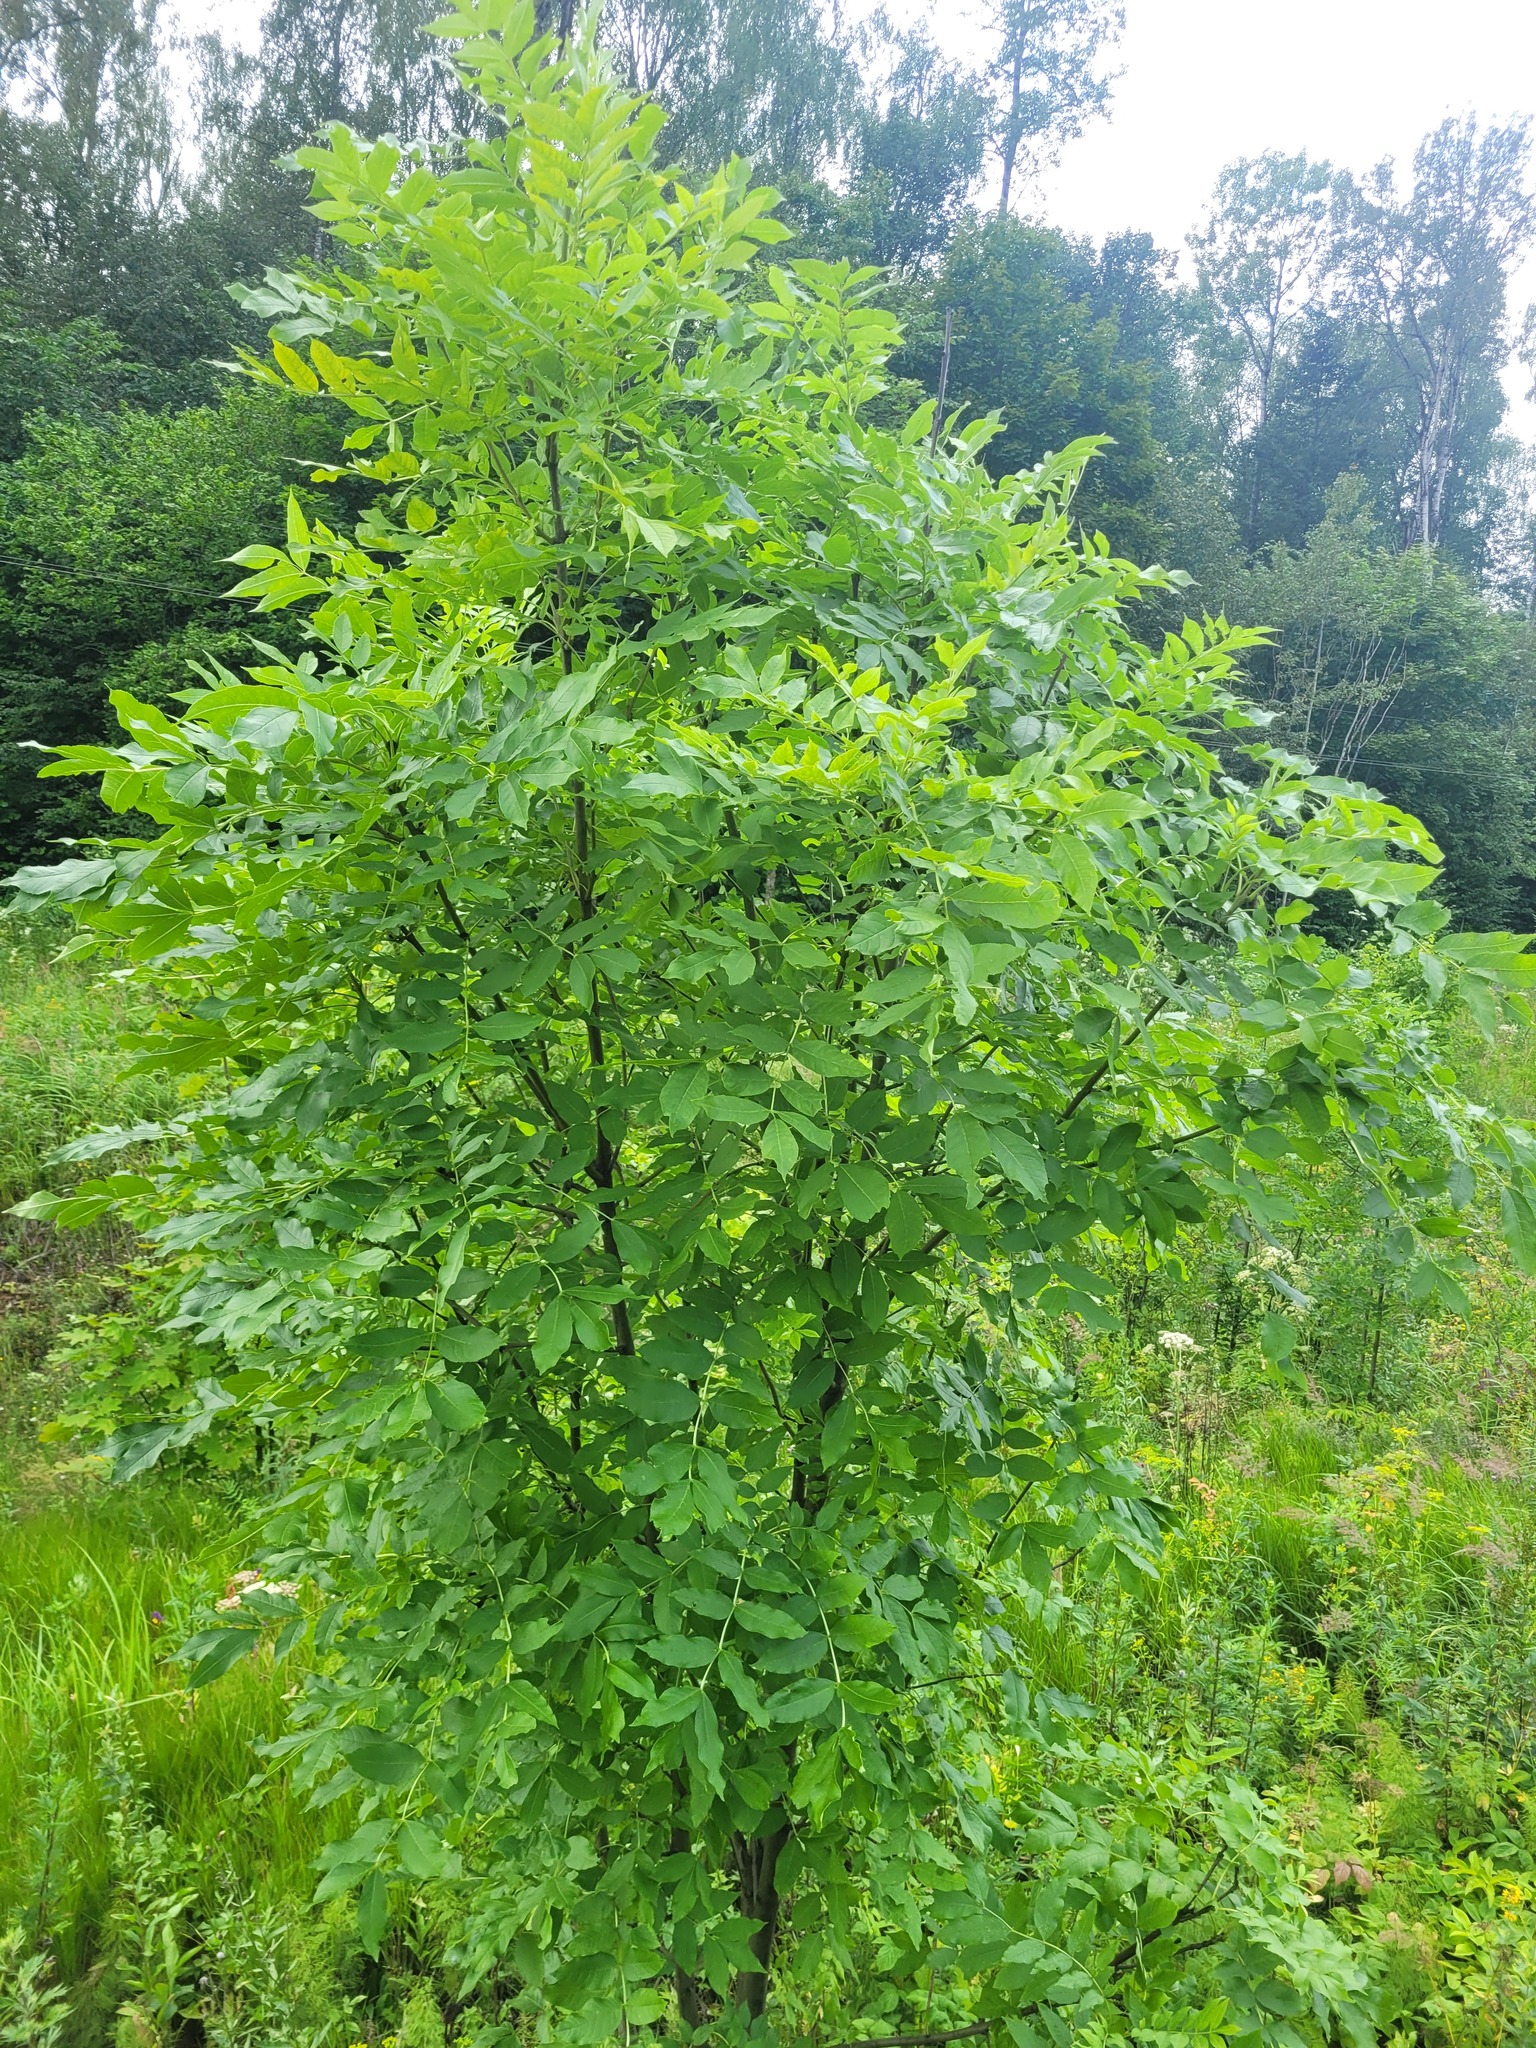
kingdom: Plantae
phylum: Tracheophyta
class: Magnoliopsida
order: Lamiales
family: Oleaceae
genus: Fraxinus
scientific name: Fraxinus excelsior
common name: European ash
